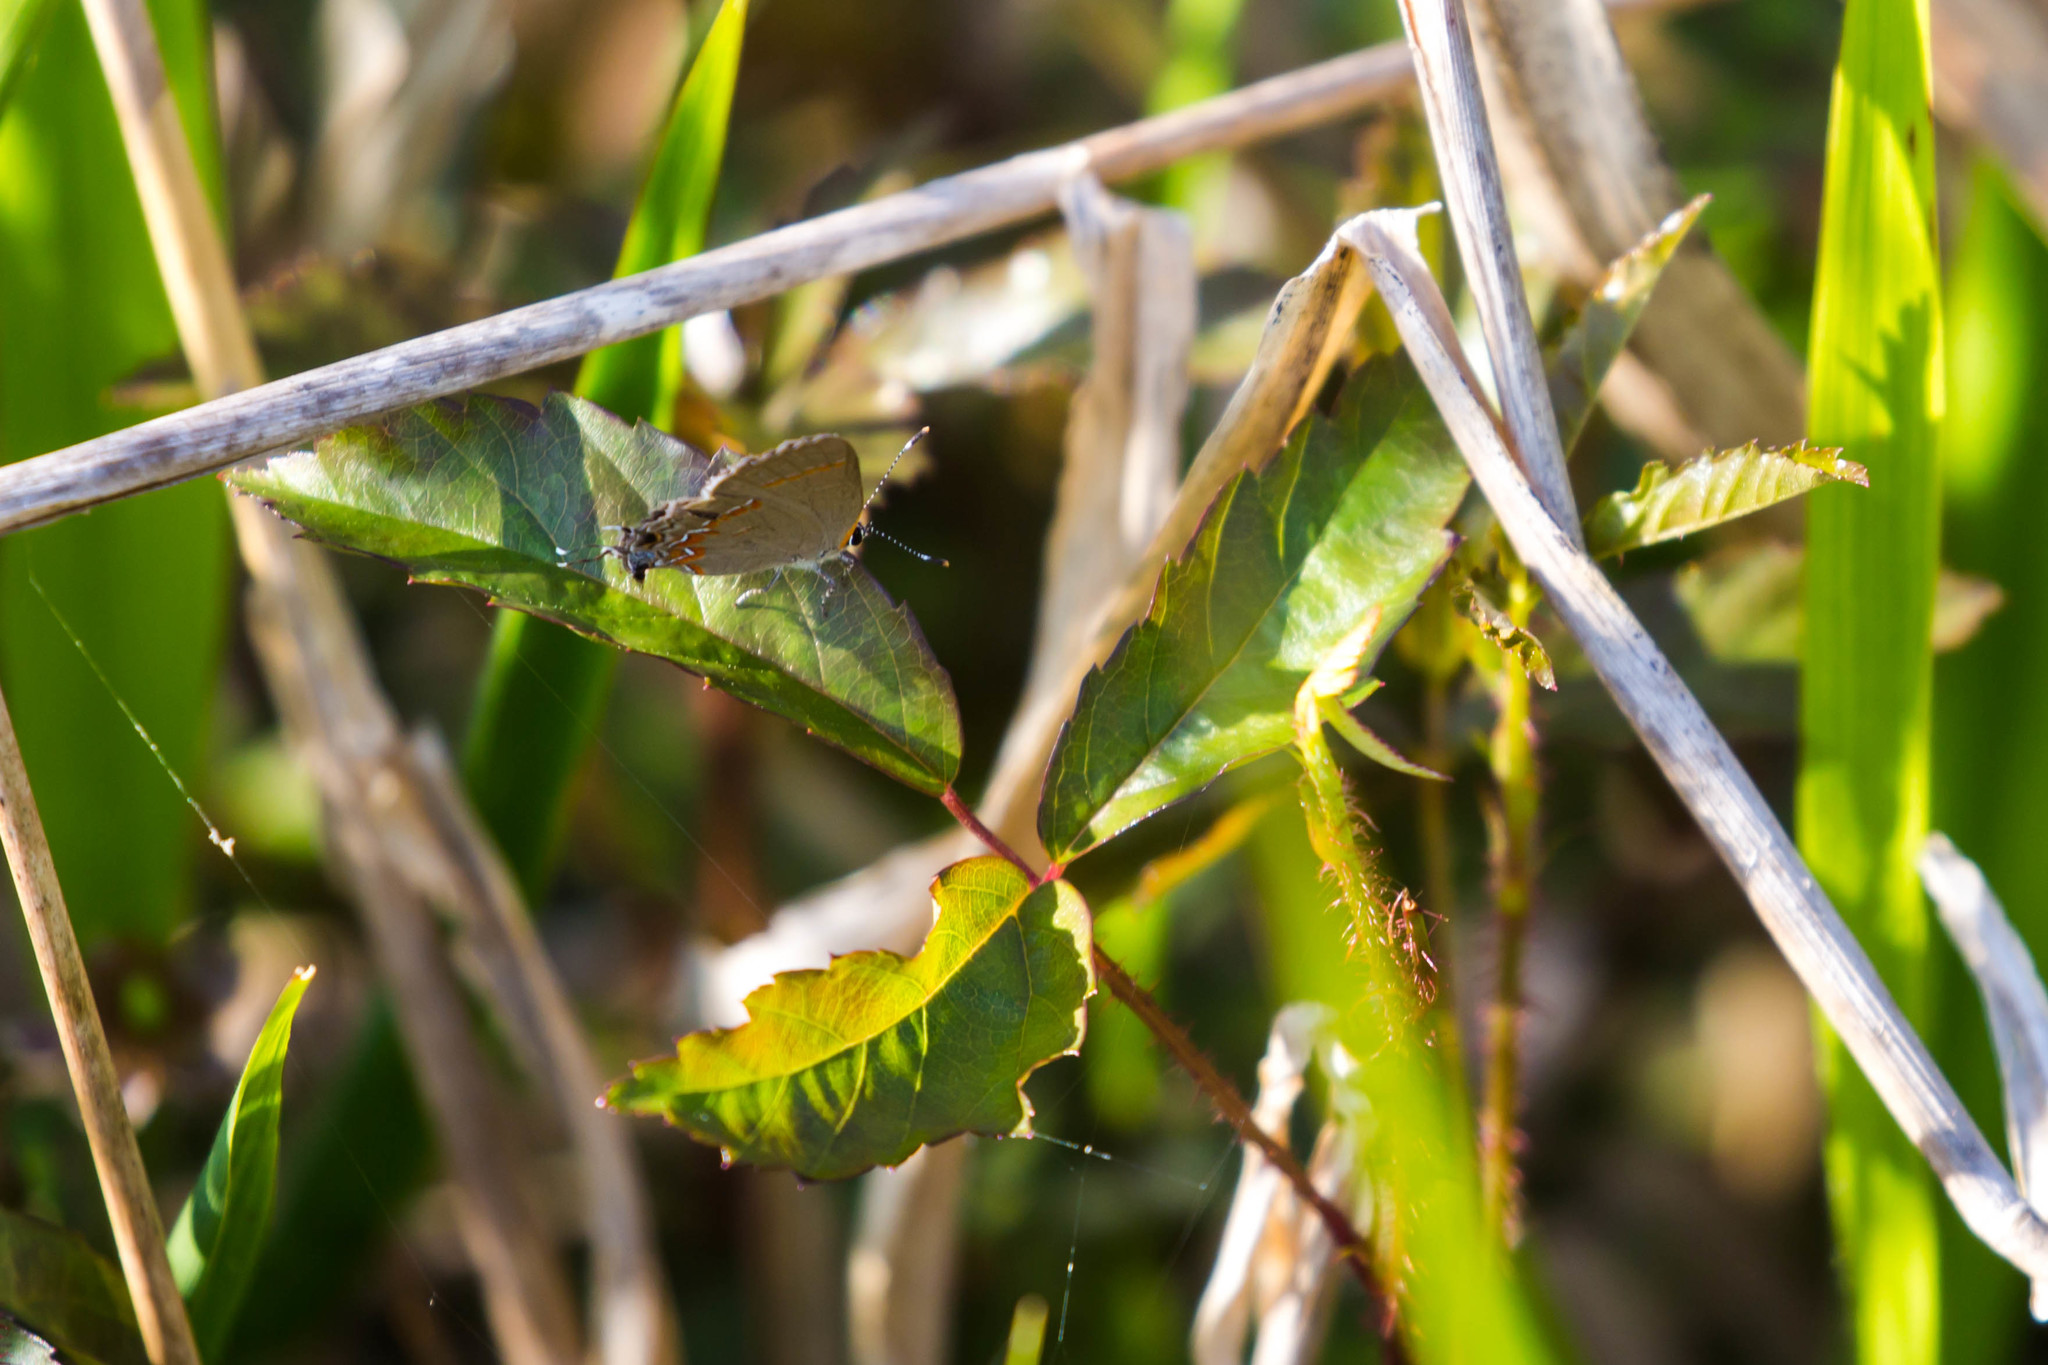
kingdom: Animalia
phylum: Arthropoda
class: Insecta
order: Lepidoptera
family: Lycaenidae
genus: Calycopis
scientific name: Calycopis cecrops
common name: Red-banded hairstreak
